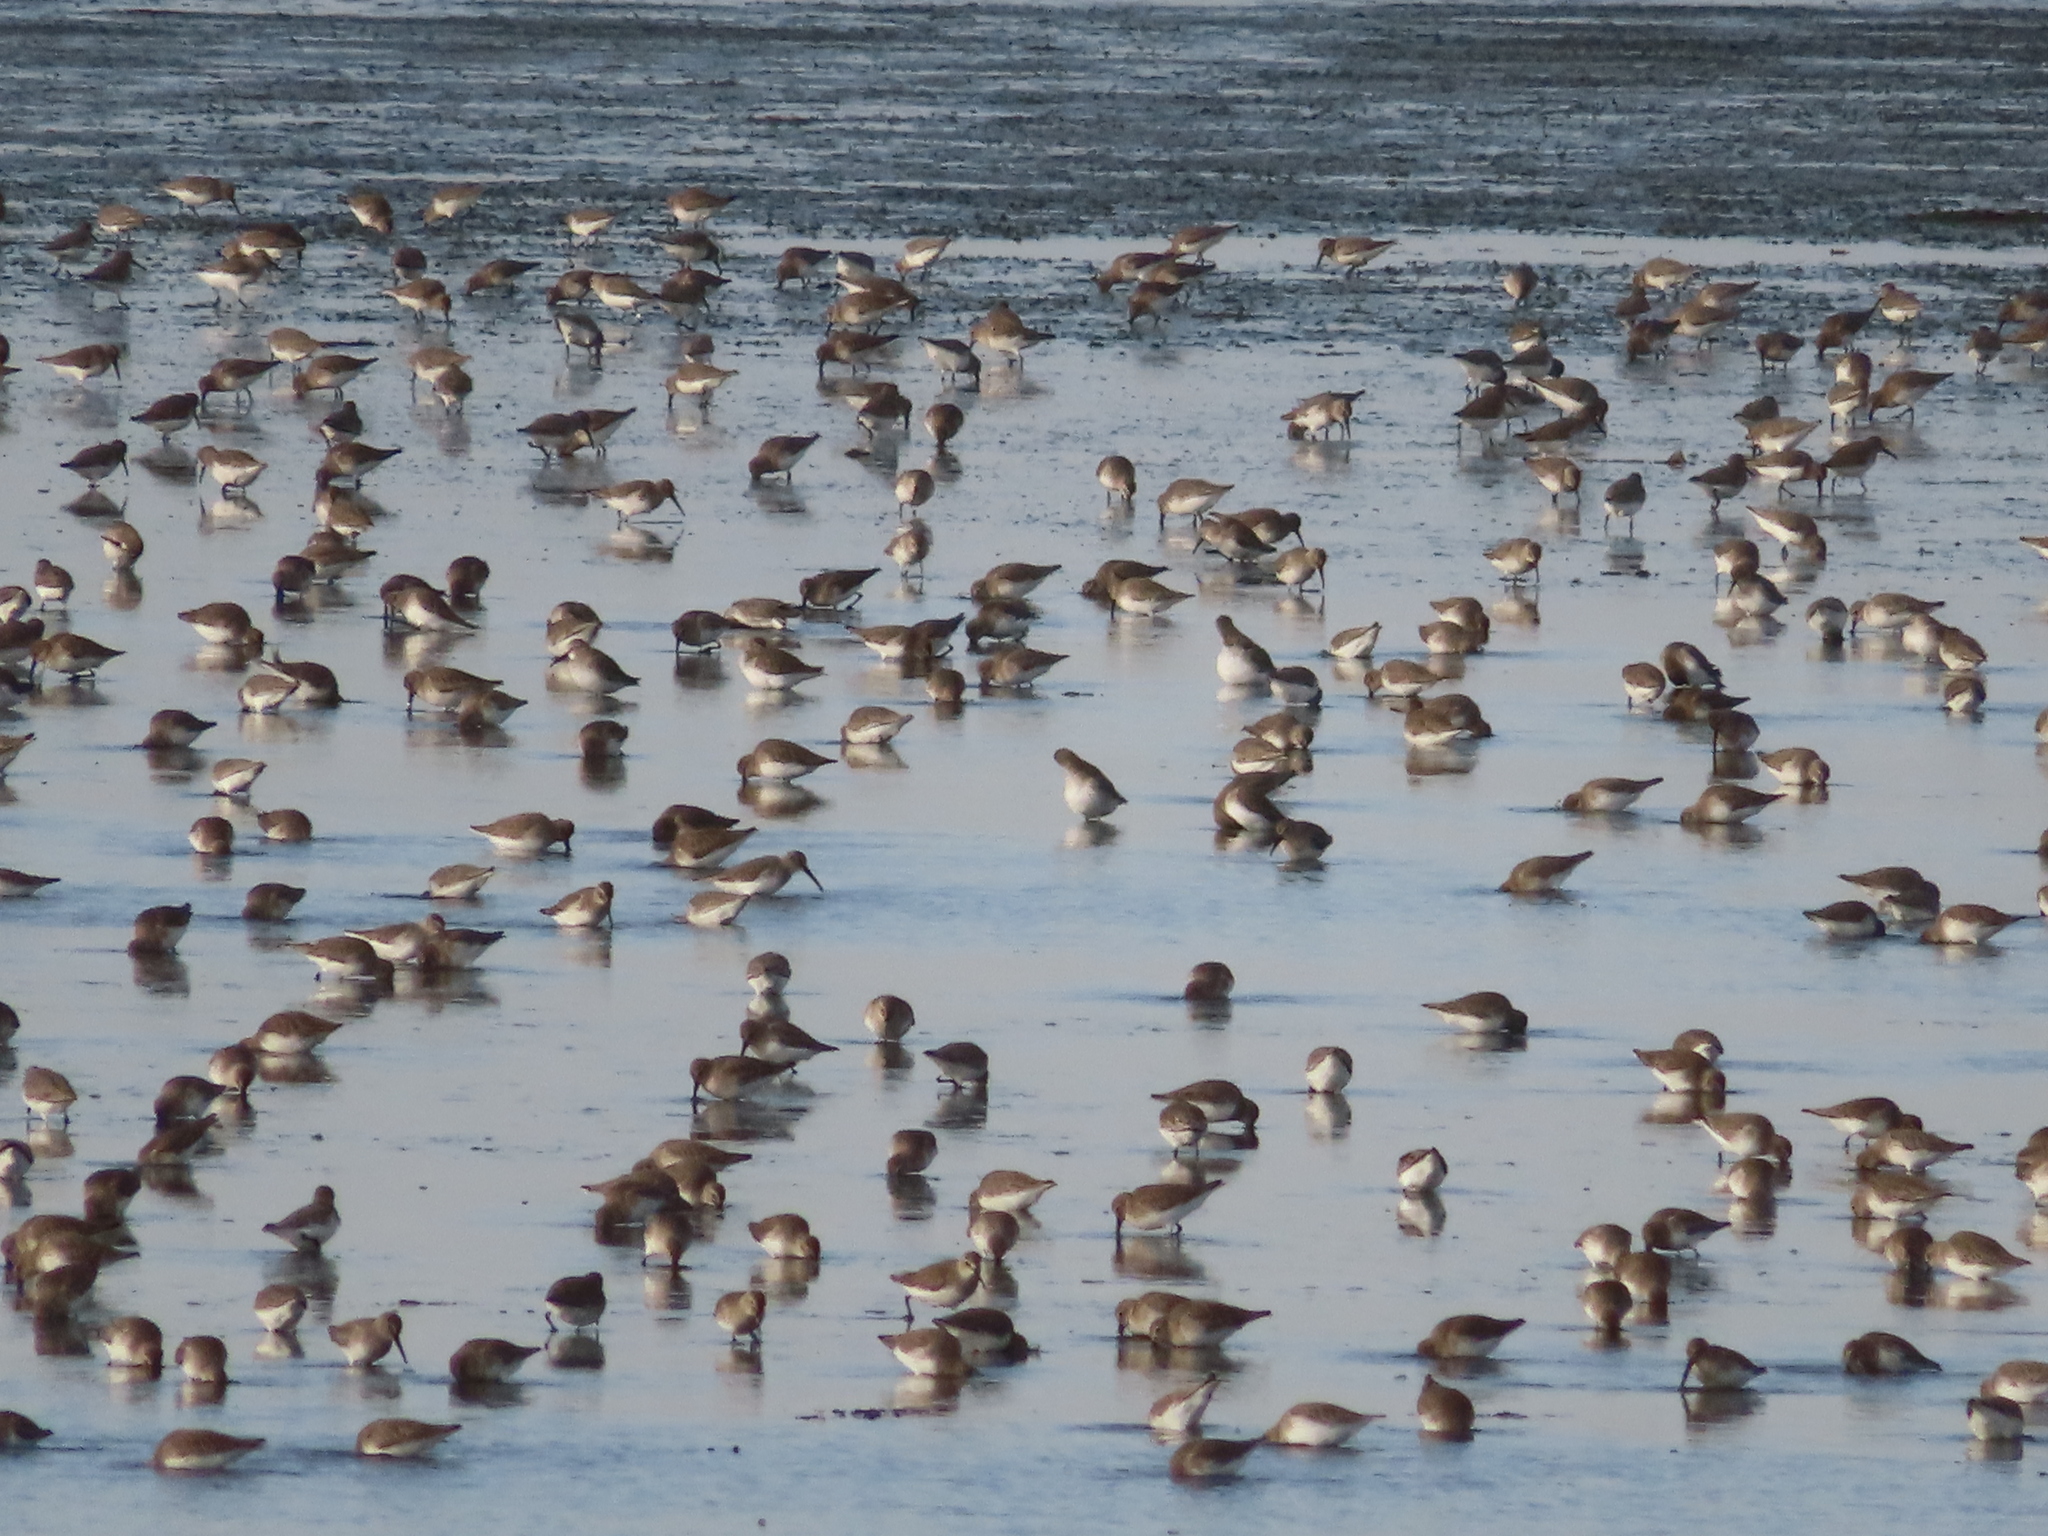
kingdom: Animalia
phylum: Chordata
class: Aves
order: Charadriiformes
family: Scolopacidae
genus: Calidris
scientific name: Calidris alpina
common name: Dunlin
